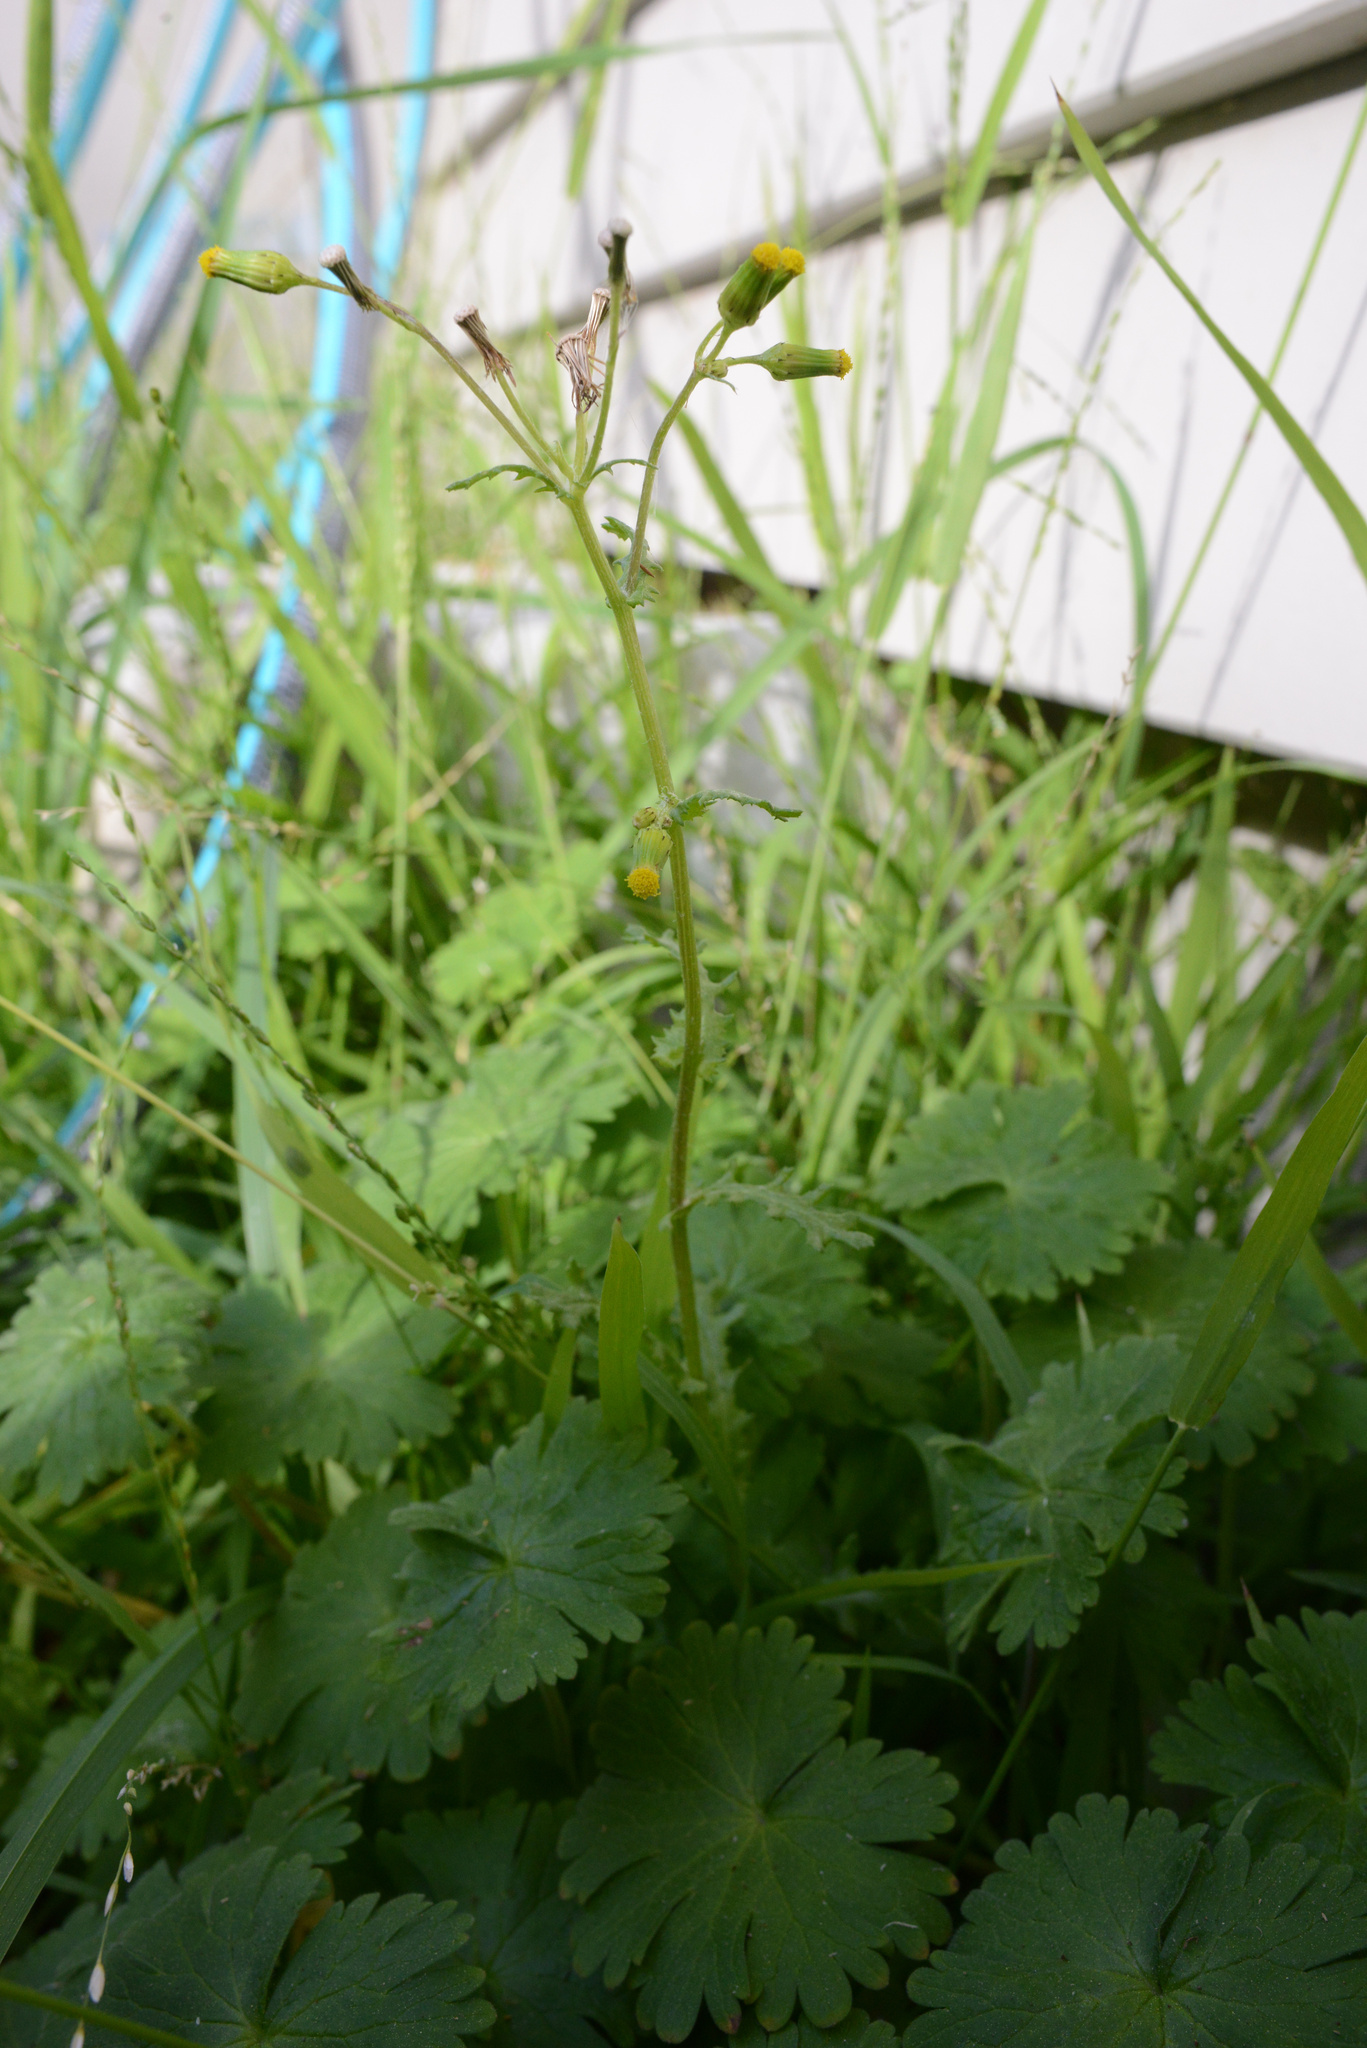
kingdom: Plantae
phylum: Tracheophyta
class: Magnoliopsida
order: Asterales
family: Asteraceae
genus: Senecio
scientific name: Senecio vulgaris
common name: Old-man-in-the-spring
